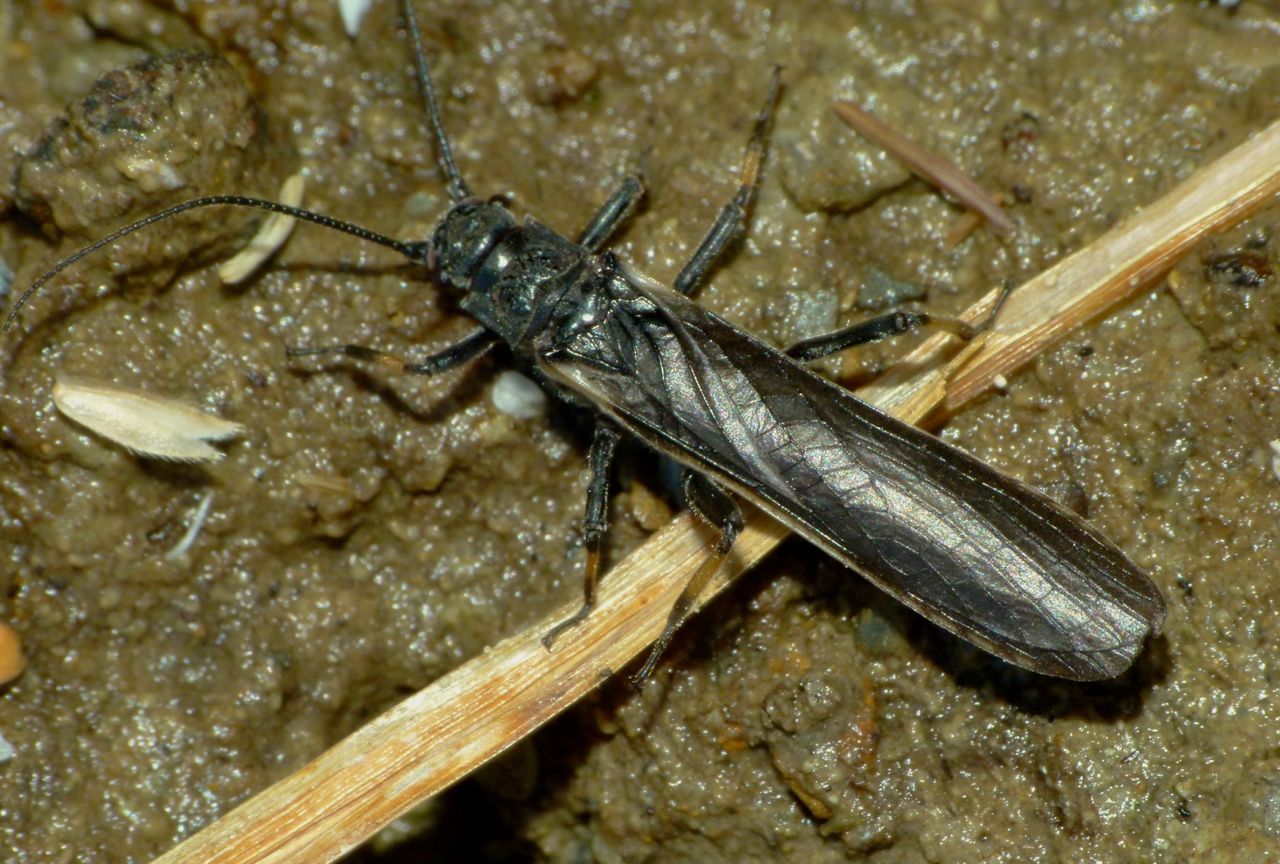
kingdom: Animalia
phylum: Arthropoda
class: Insecta
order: Plecoptera
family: Austroperlidae
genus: Austroperla
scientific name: Austroperla cyrene
